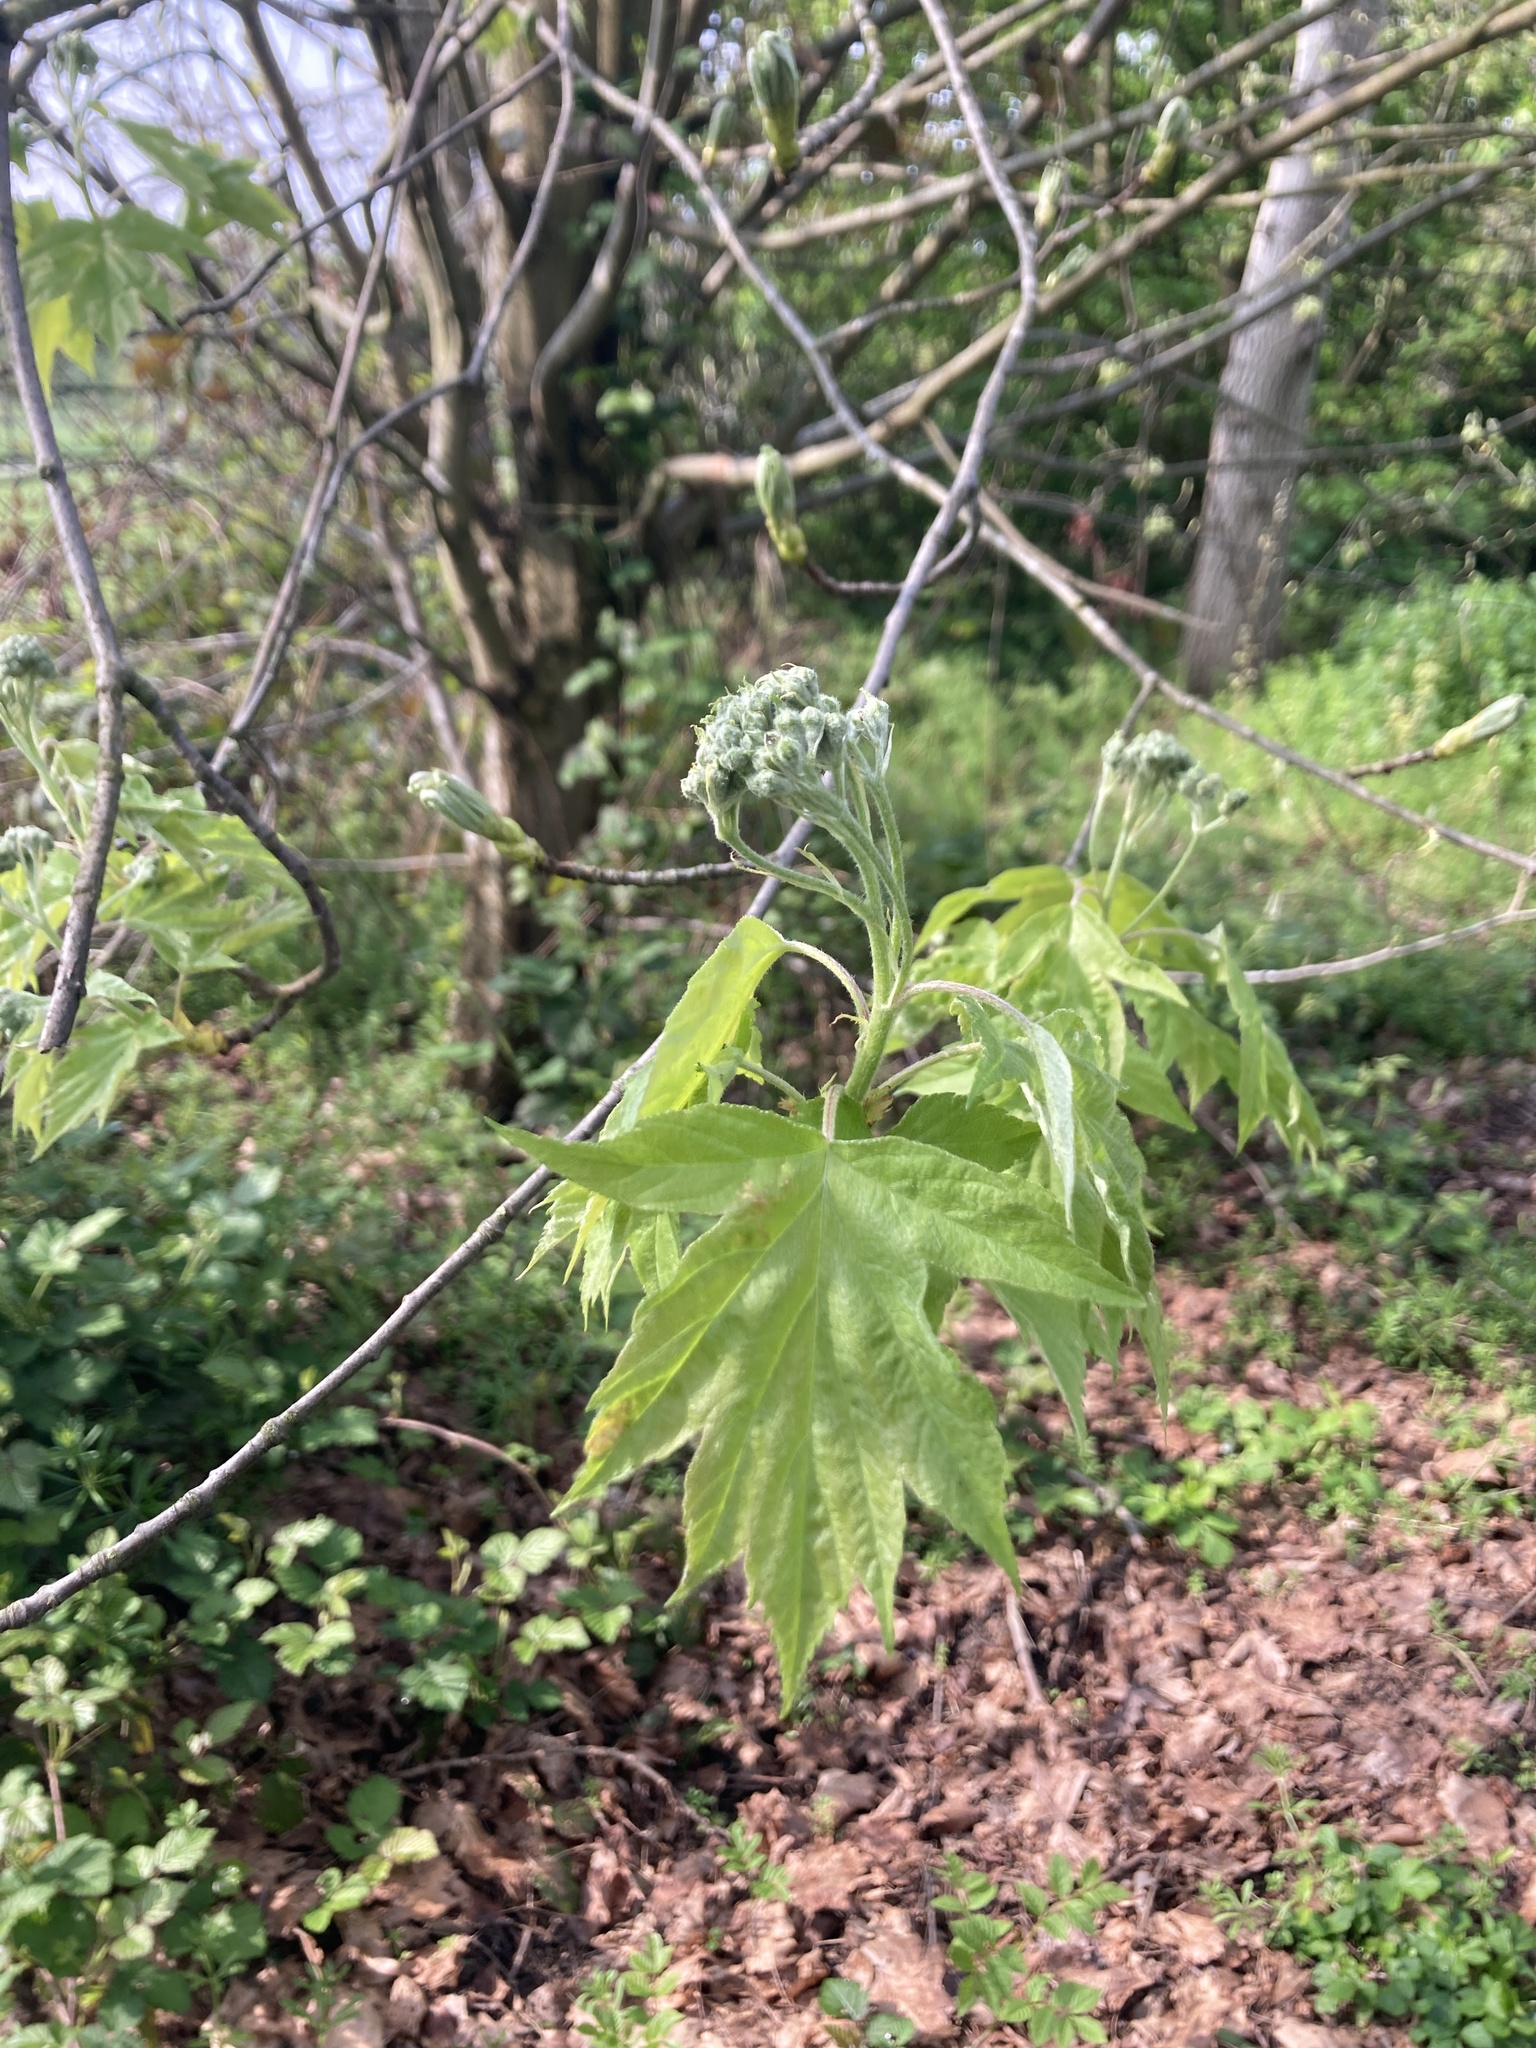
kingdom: Plantae
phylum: Tracheophyta
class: Magnoliopsida
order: Rosales
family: Rosaceae
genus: Torminalis
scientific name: Torminalis glaberrima
